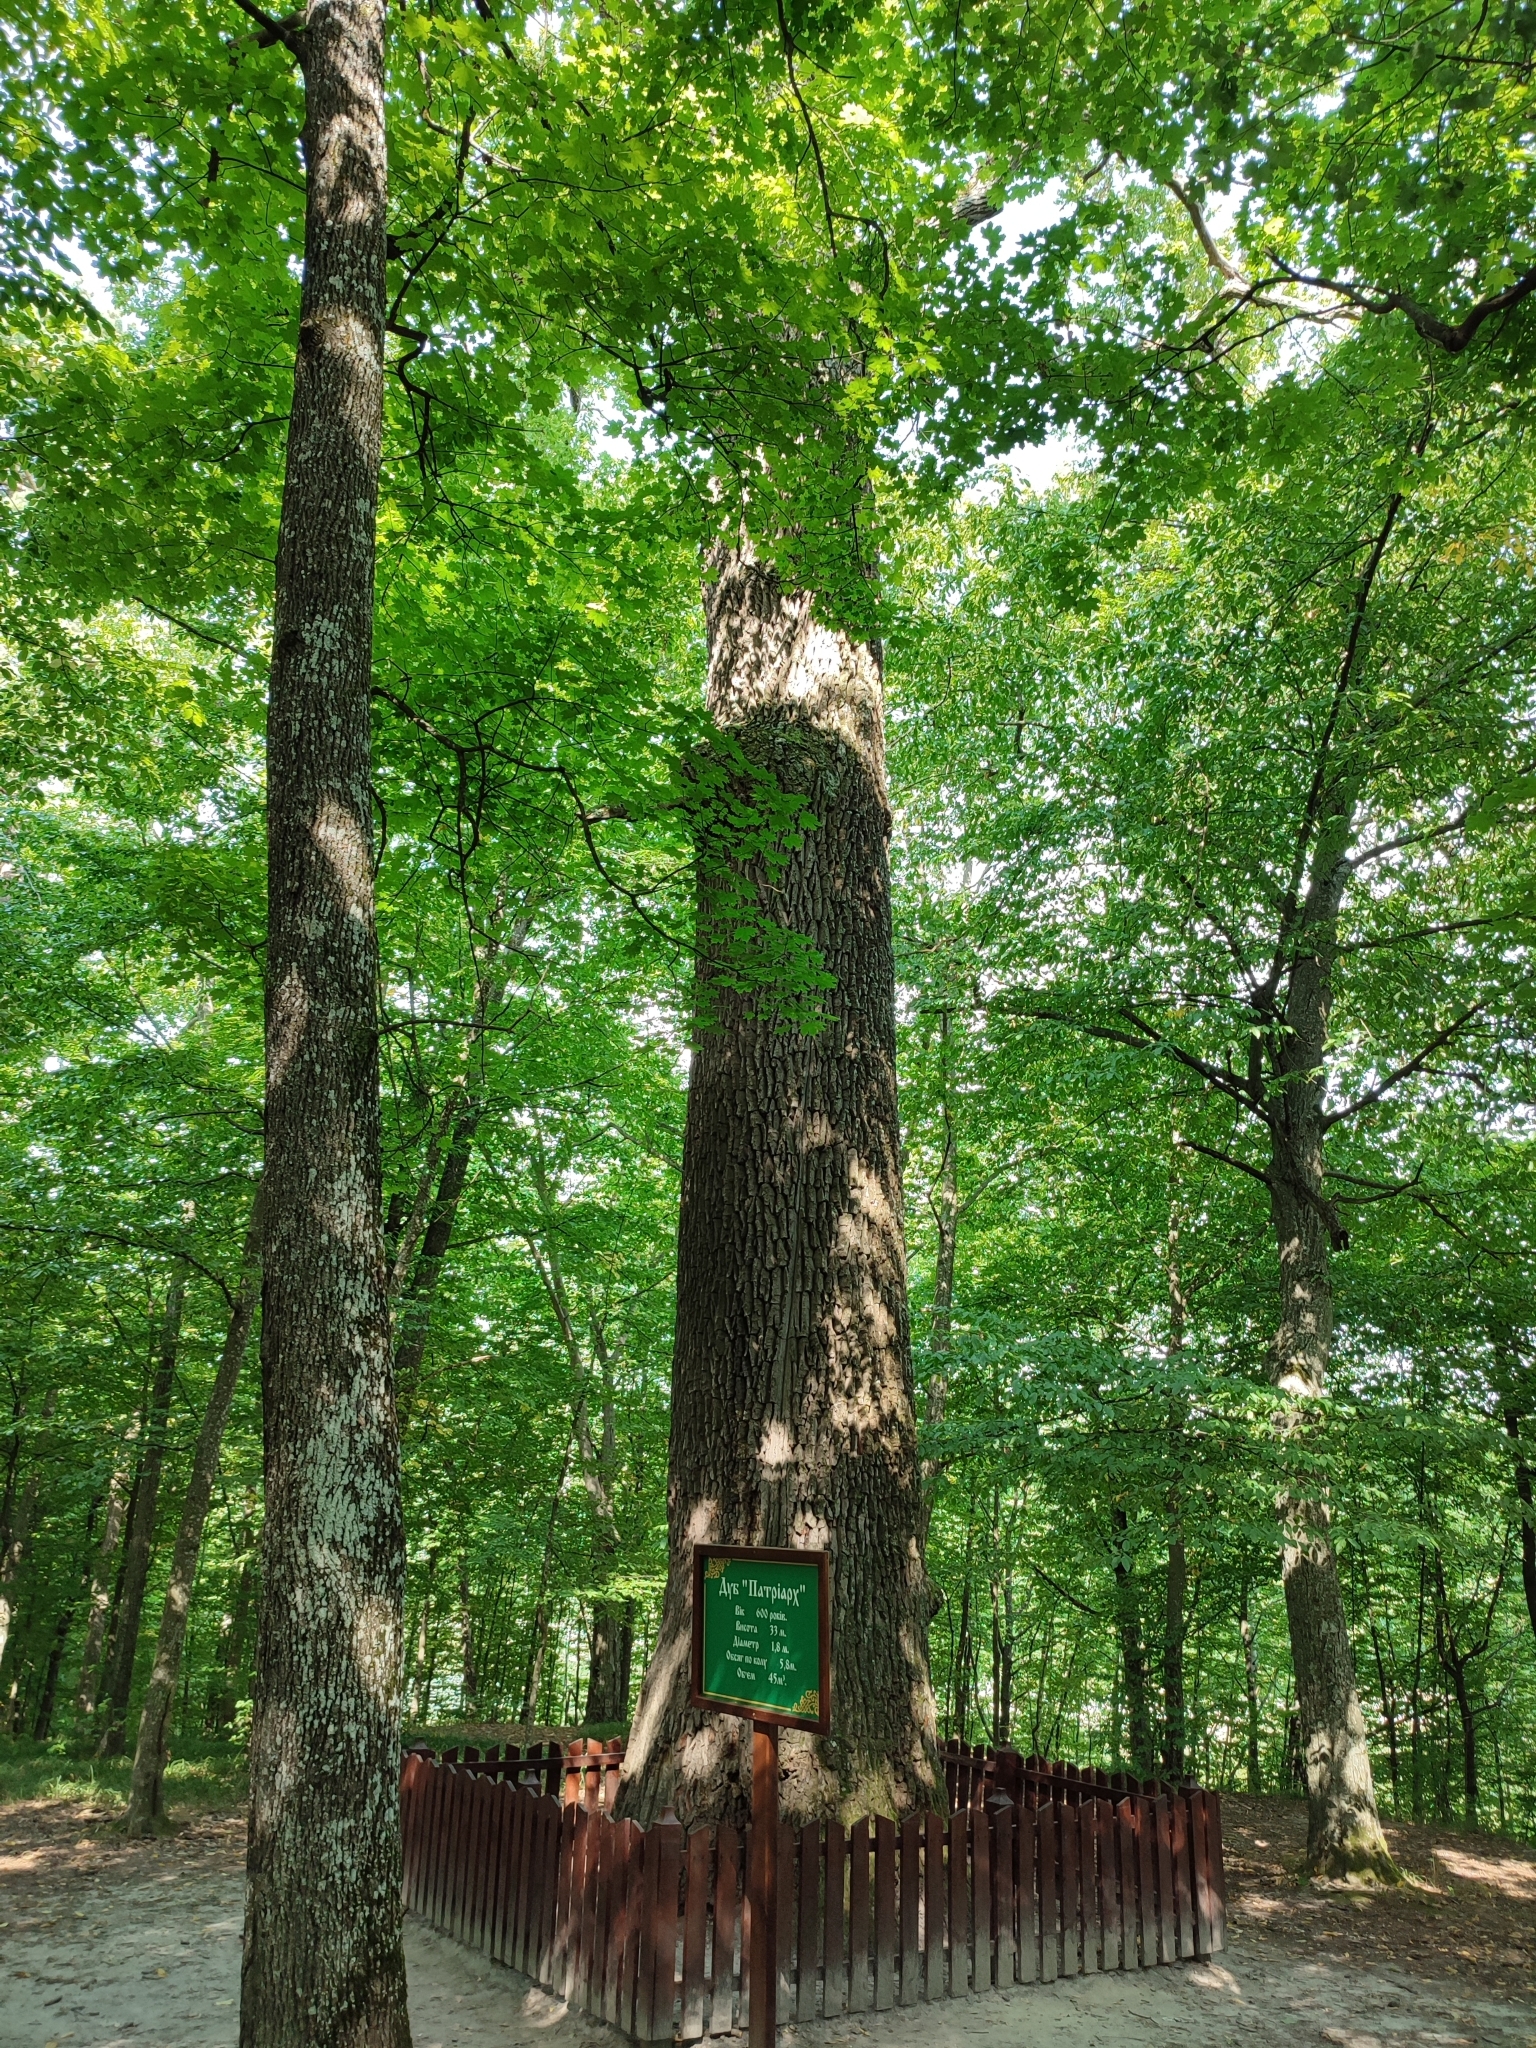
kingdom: Plantae
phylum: Tracheophyta
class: Magnoliopsida
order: Fagales
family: Fagaceae
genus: Quercus
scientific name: Quercus robur
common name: Pedunculate oak
